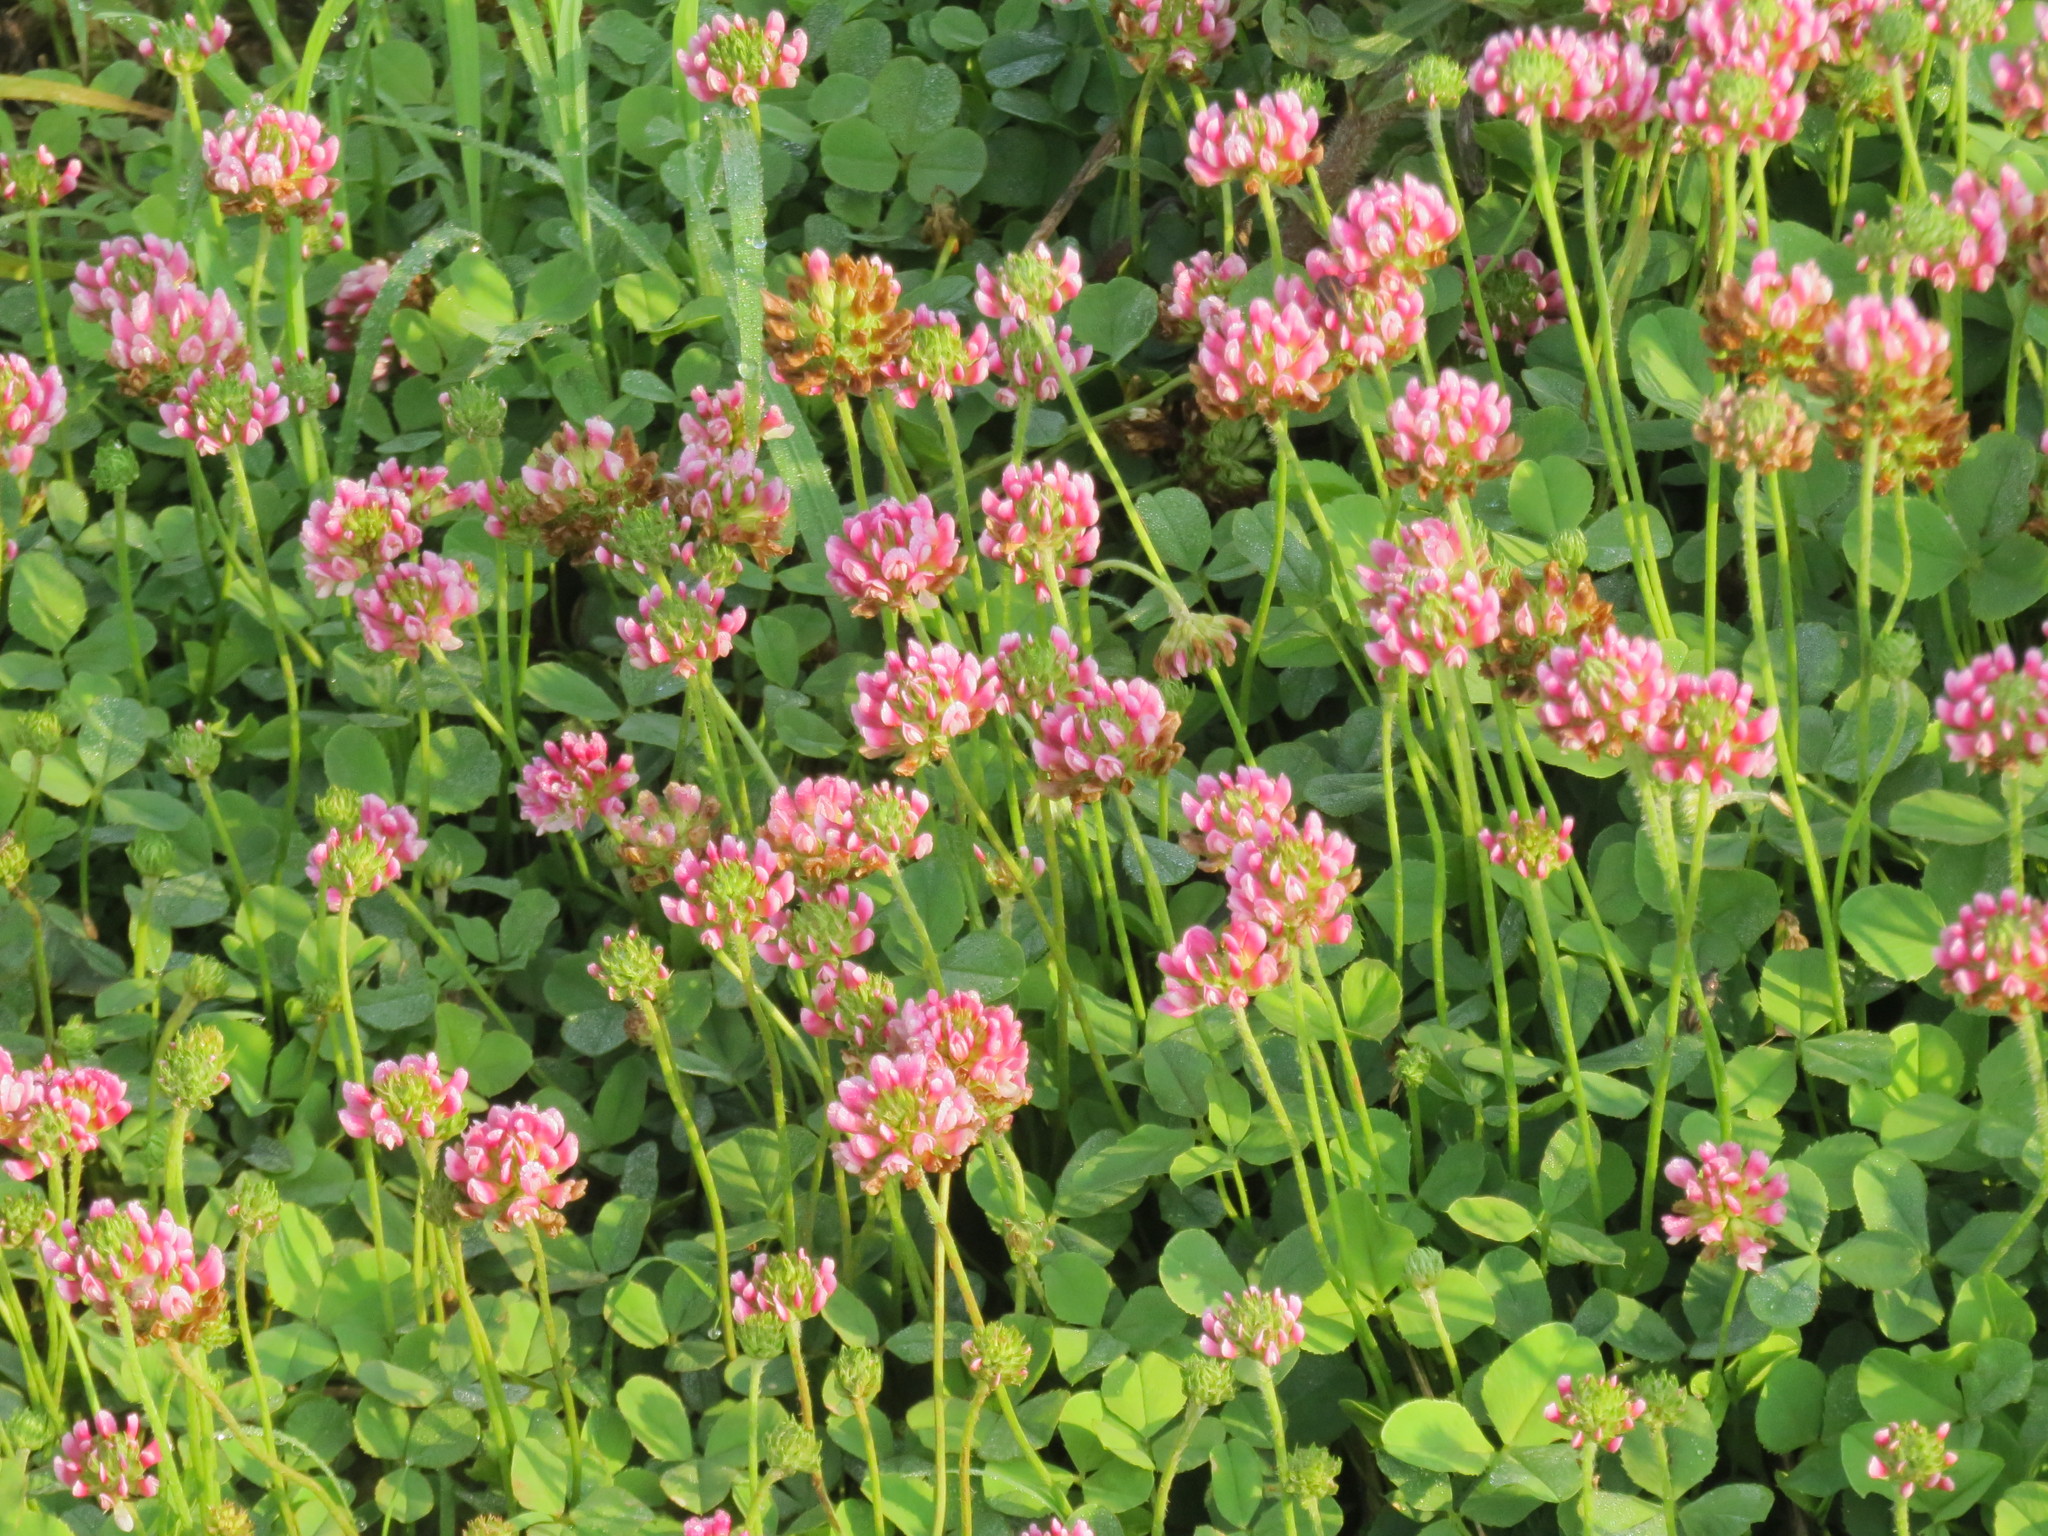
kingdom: Plantae
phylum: Tracheophyta
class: Magnoliopsida
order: Fabales
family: Fabaceae
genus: Trifolium
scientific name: Trifolium riograndense
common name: Rio grande clover
